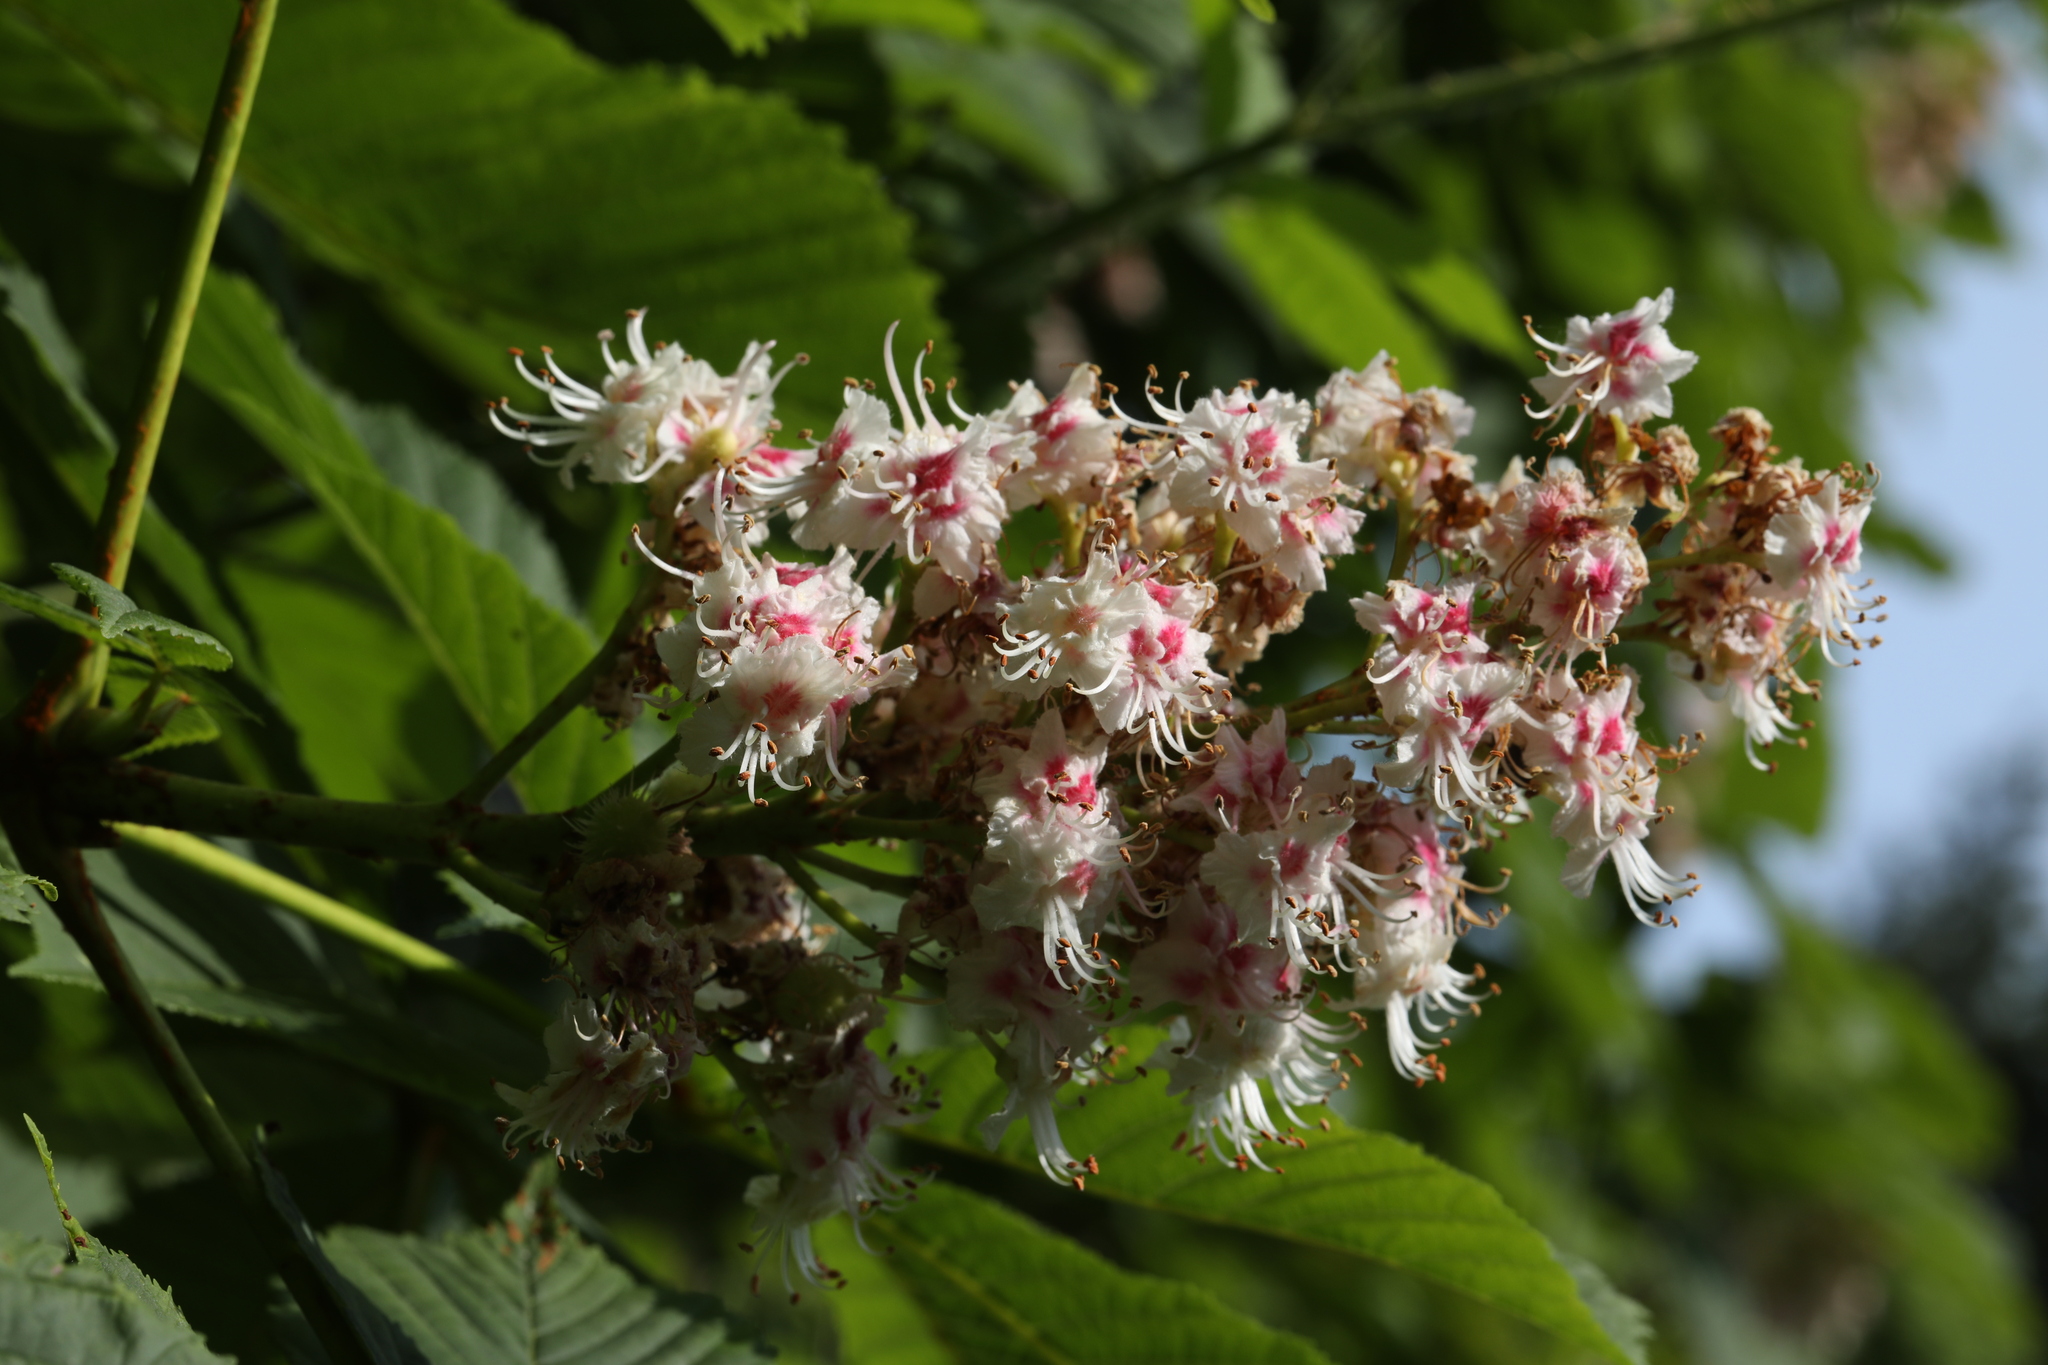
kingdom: Plantae
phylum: Tracheophyta
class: Magnoliopsida
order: Sapindales
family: Sapindaceae
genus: Aesculus
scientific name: Aesculus hippocastanum
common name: Horse-chestnut
